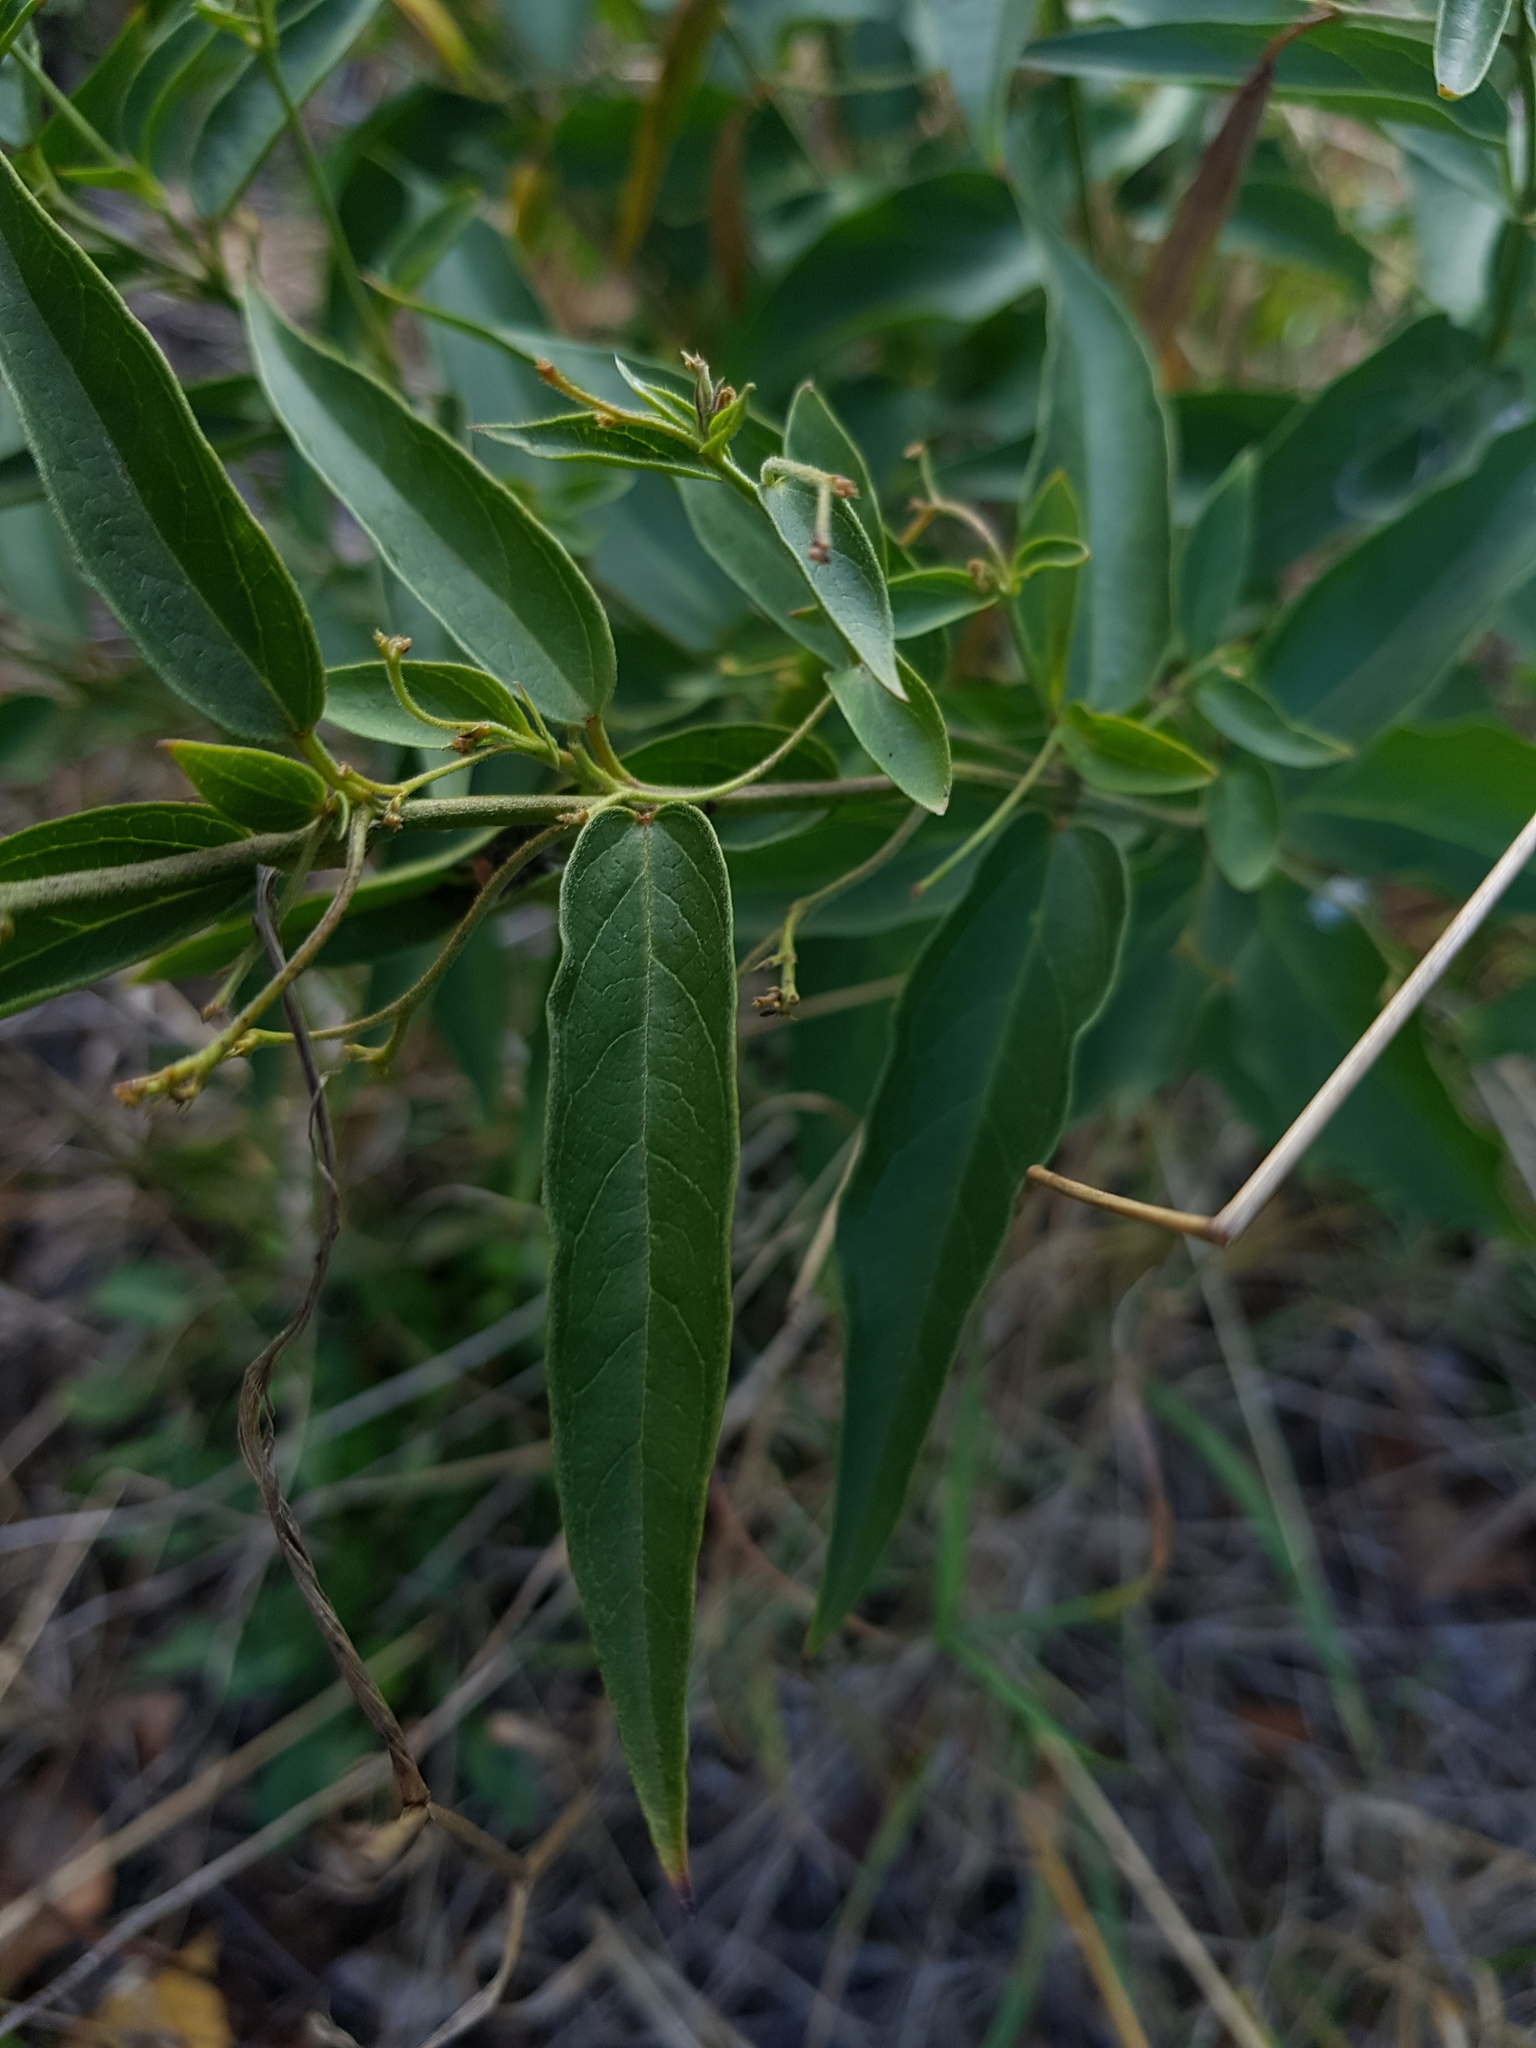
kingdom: Plantae
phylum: Tracheophyta
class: Magnoliopsida
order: Gentianales
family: Apocynaceae
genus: Vincetoxicum
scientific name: Vincetoxicum hirundinaria
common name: White swallowwort
